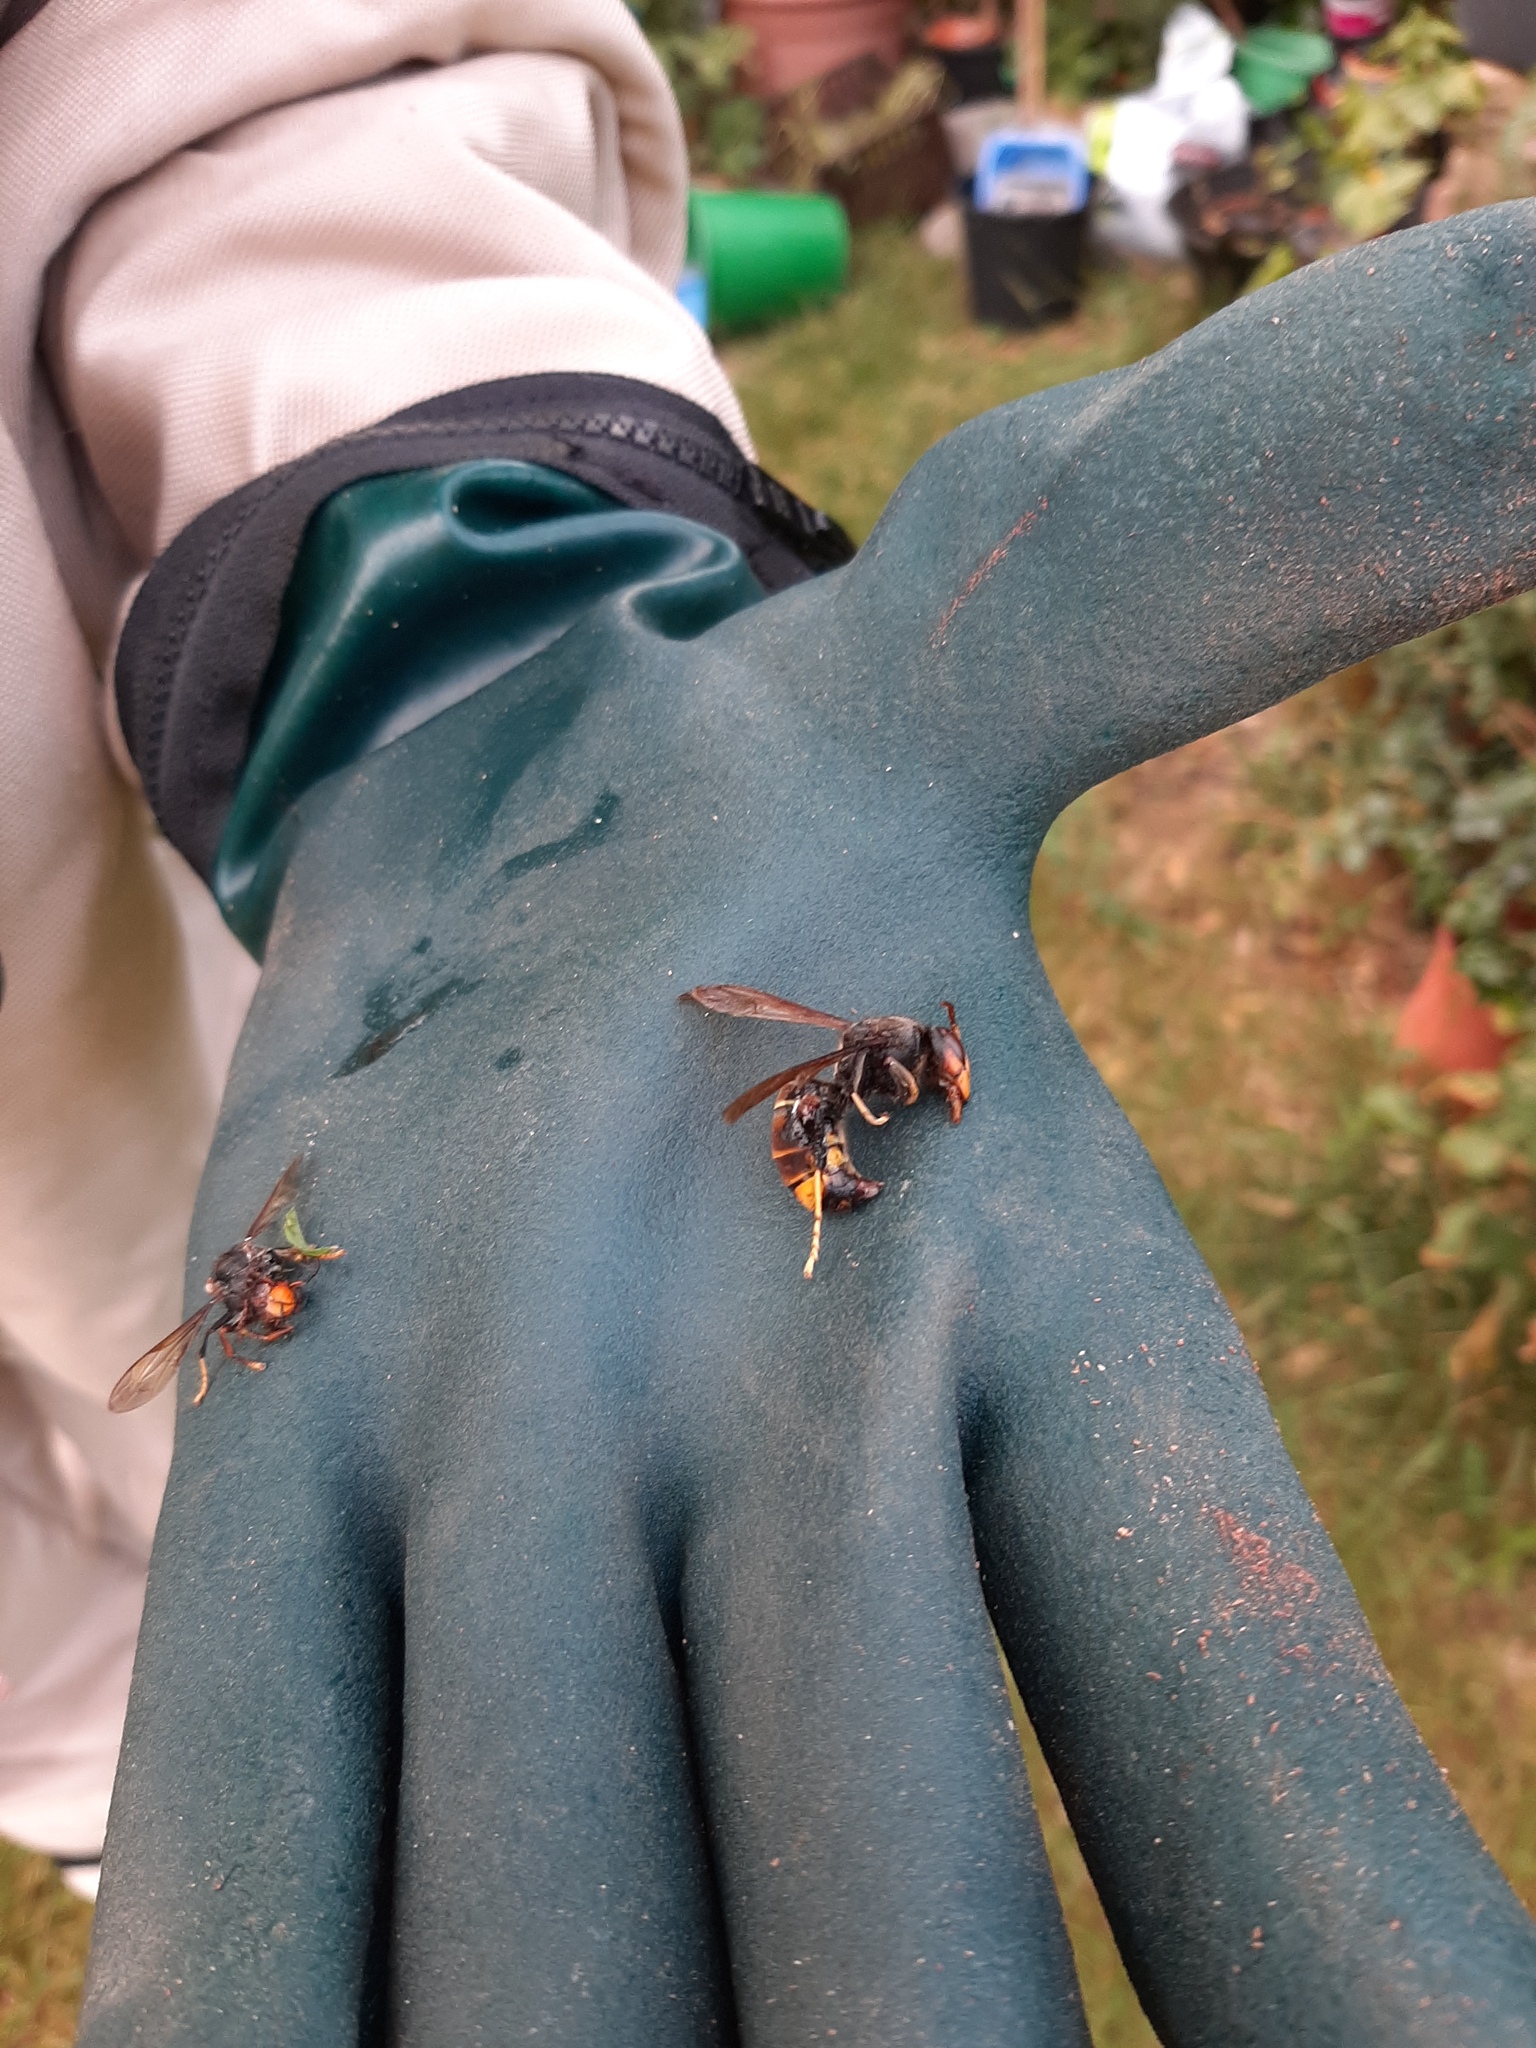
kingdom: Animalia
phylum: Arthropoda
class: Insecta
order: Hymenoptera
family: Vespidae
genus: Vespa
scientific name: Vespa velutina
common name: Asian hornet
